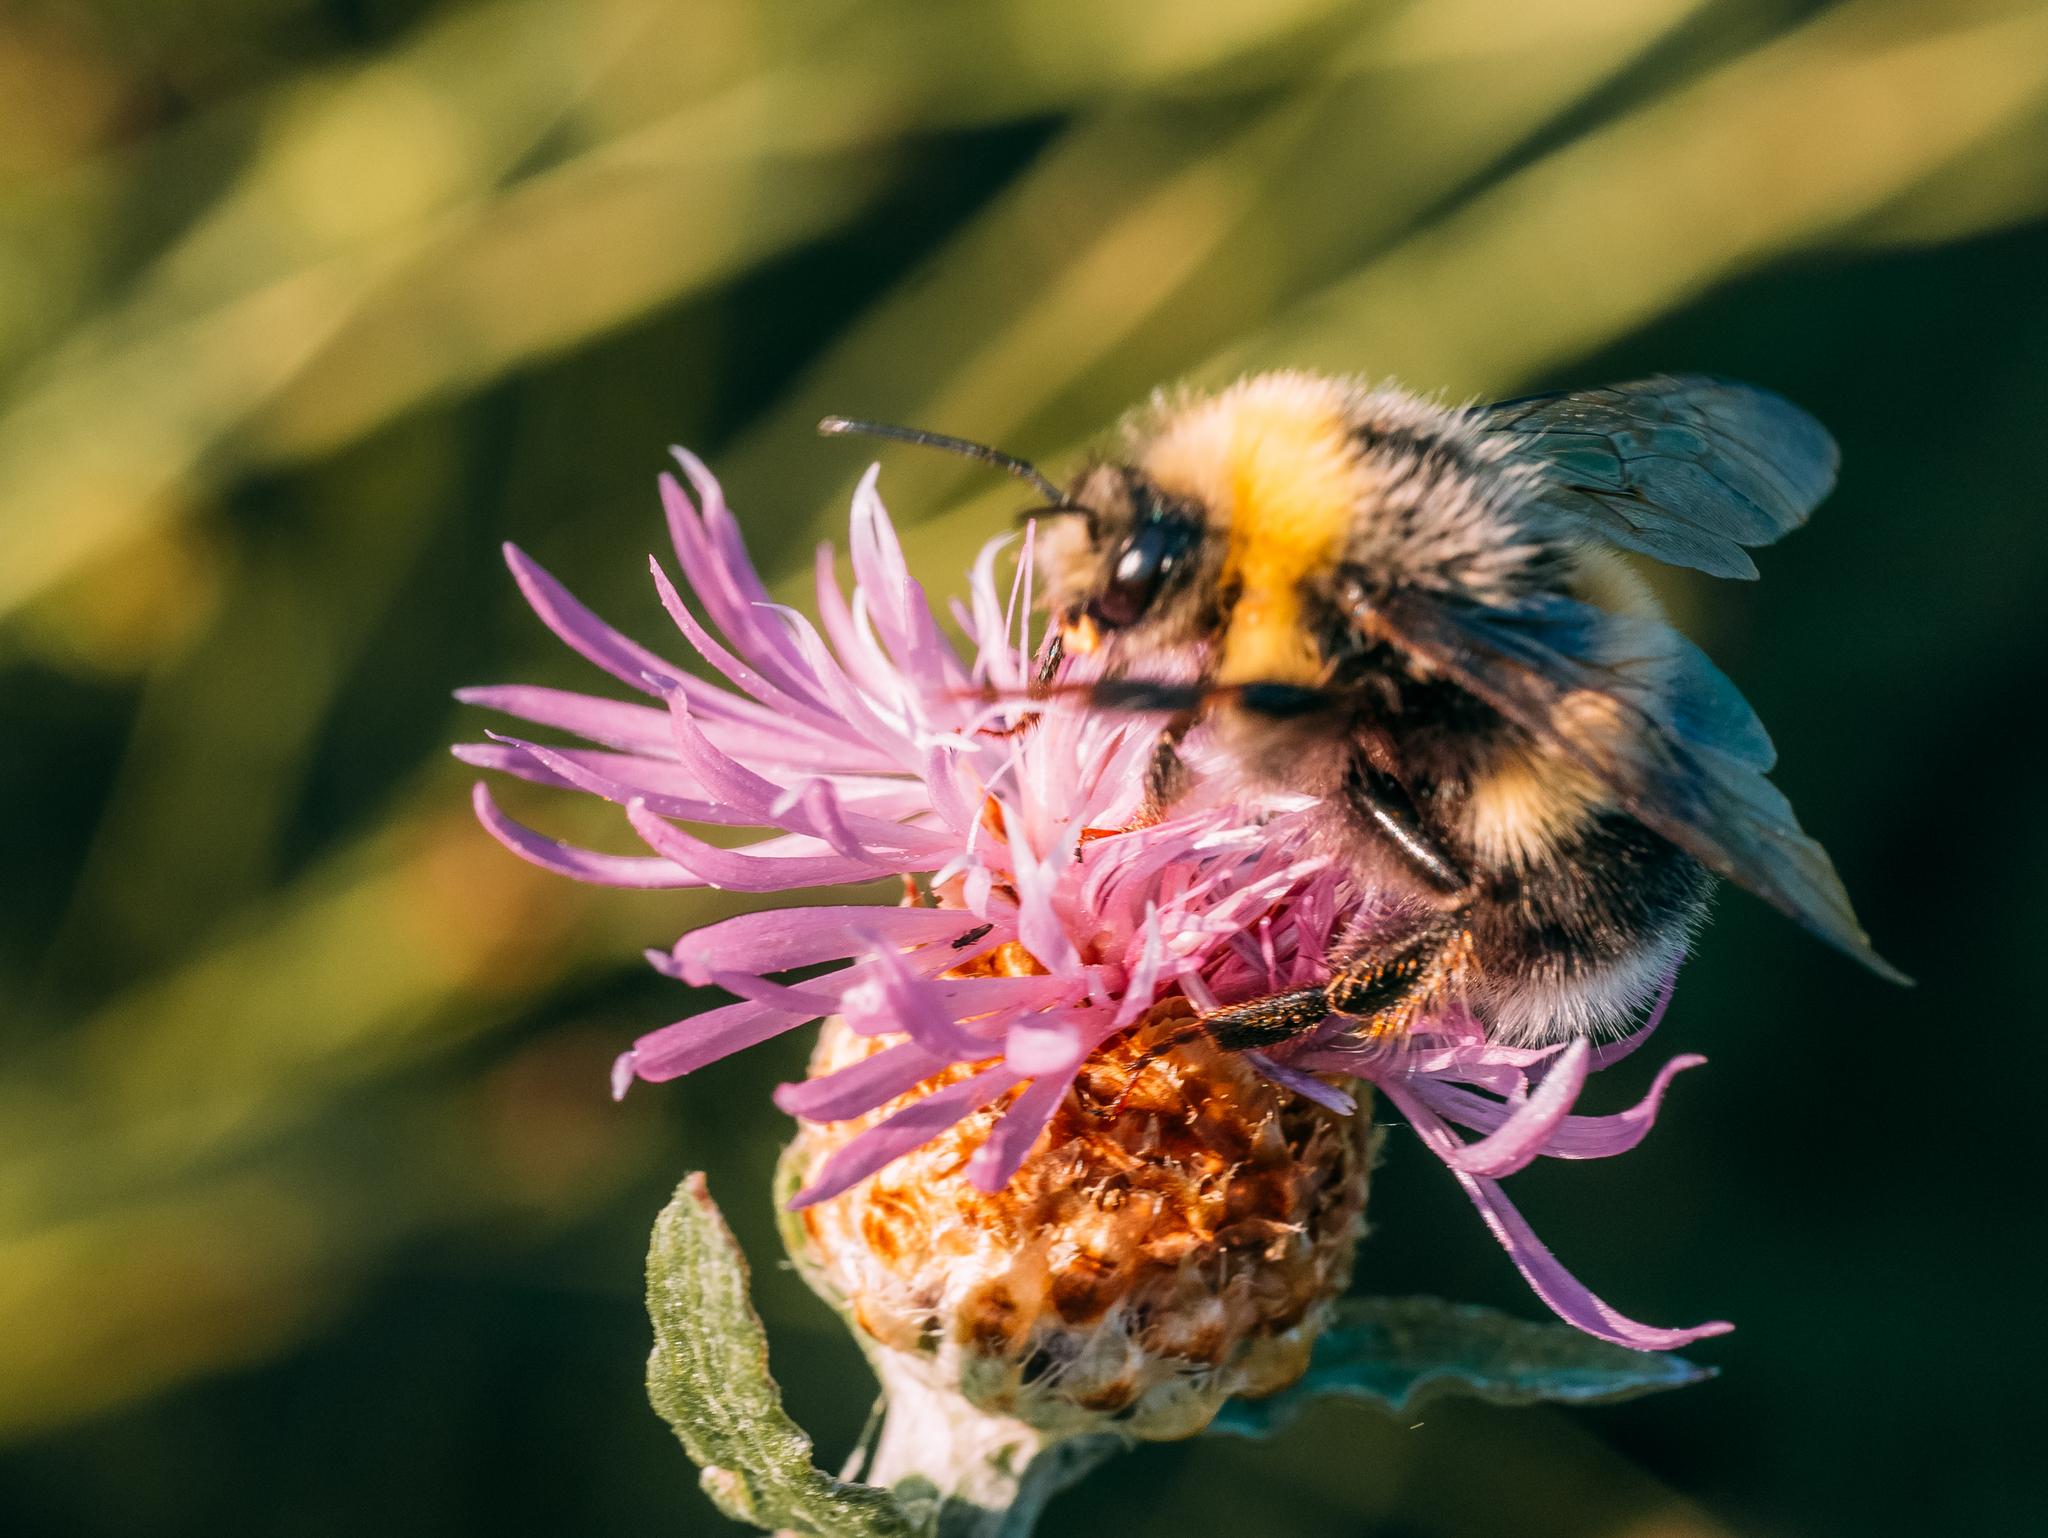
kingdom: Animalia
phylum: Arthropoda
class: Insecta
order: Hymenoptera
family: Apidae
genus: Bombus
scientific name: Bombus lucorum
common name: White-tailed bumblebee
